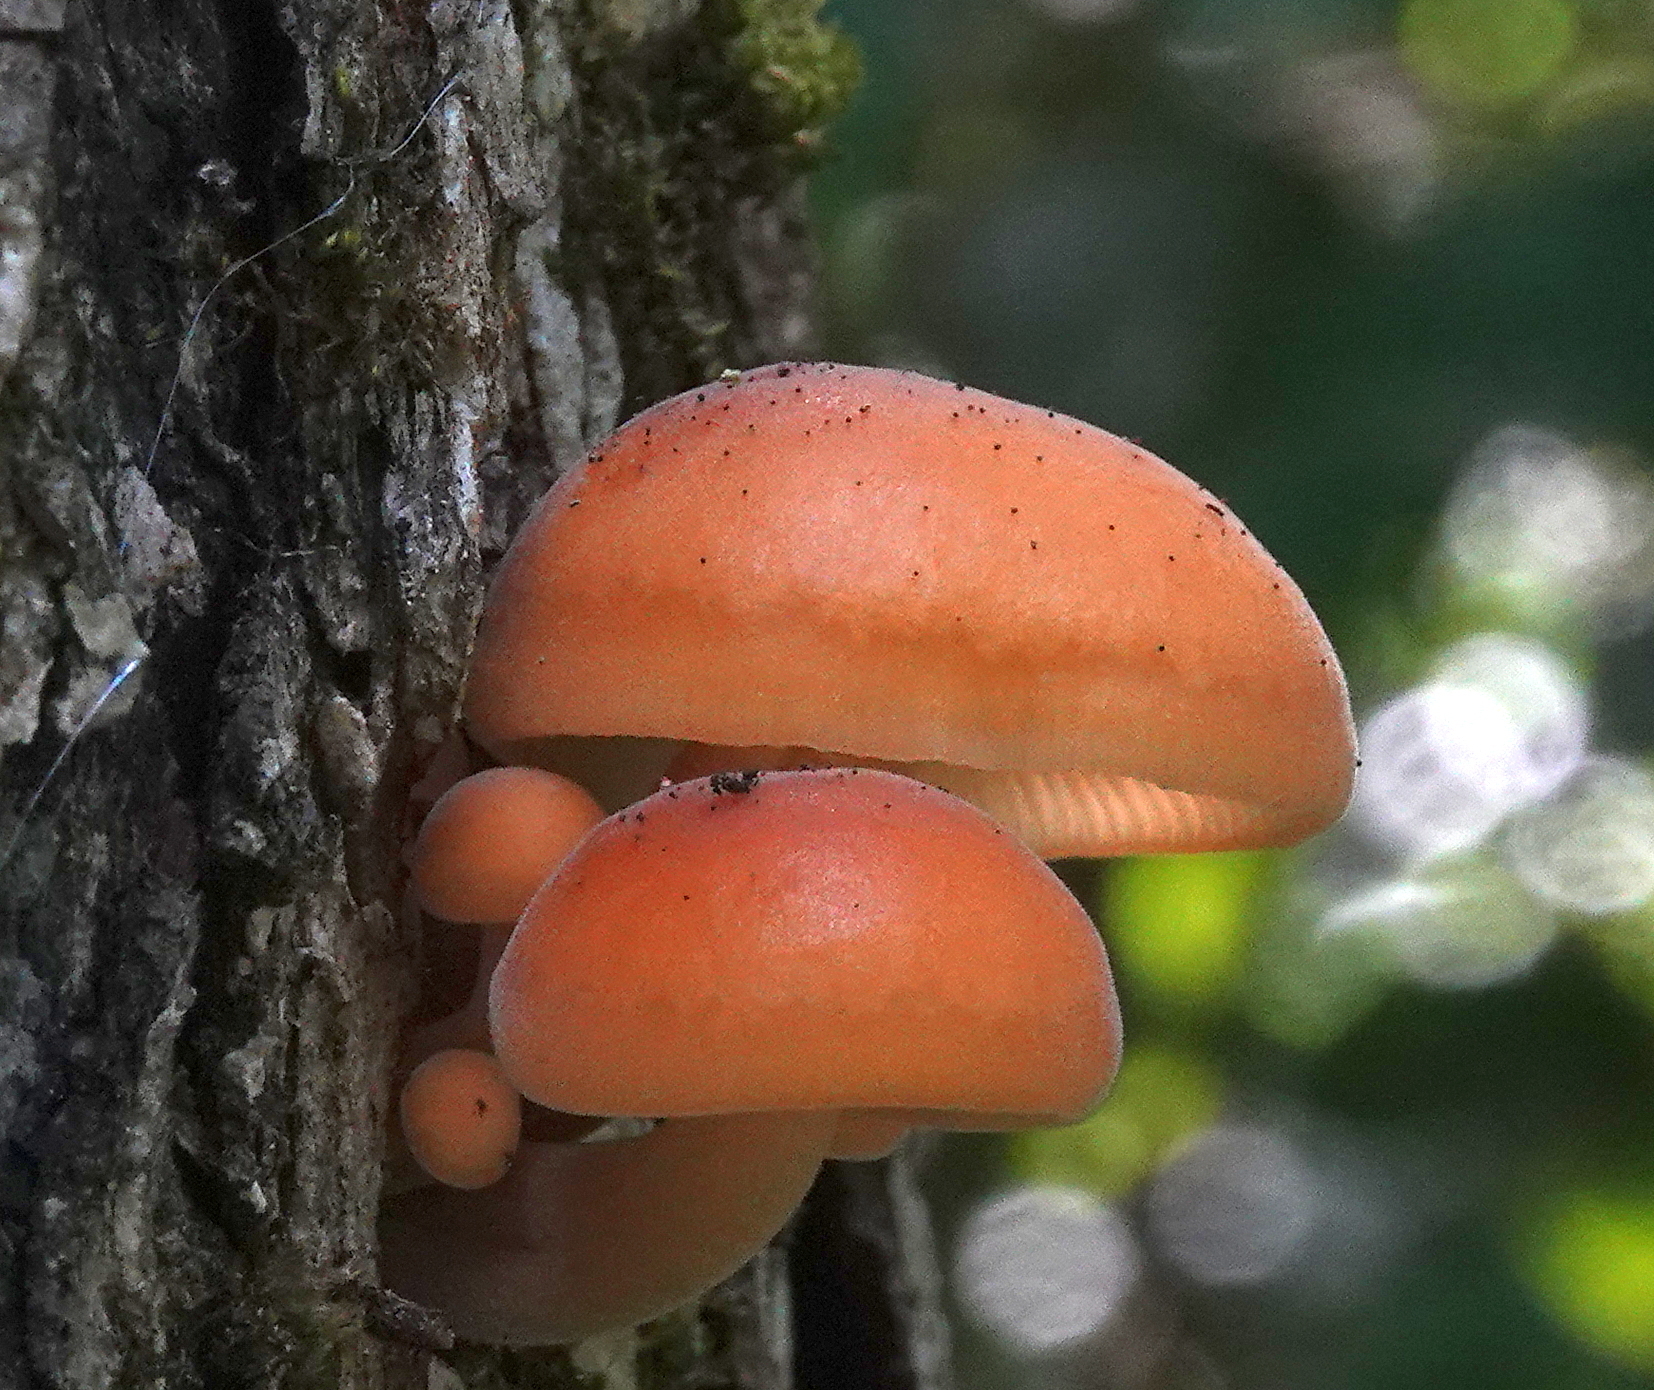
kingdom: Fungi
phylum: Basidiomycota
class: Agaricomycetes
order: Agaricales
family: Physalacriaceae
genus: Flammulina
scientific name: Flammulina velutipes
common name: Velvet shank
